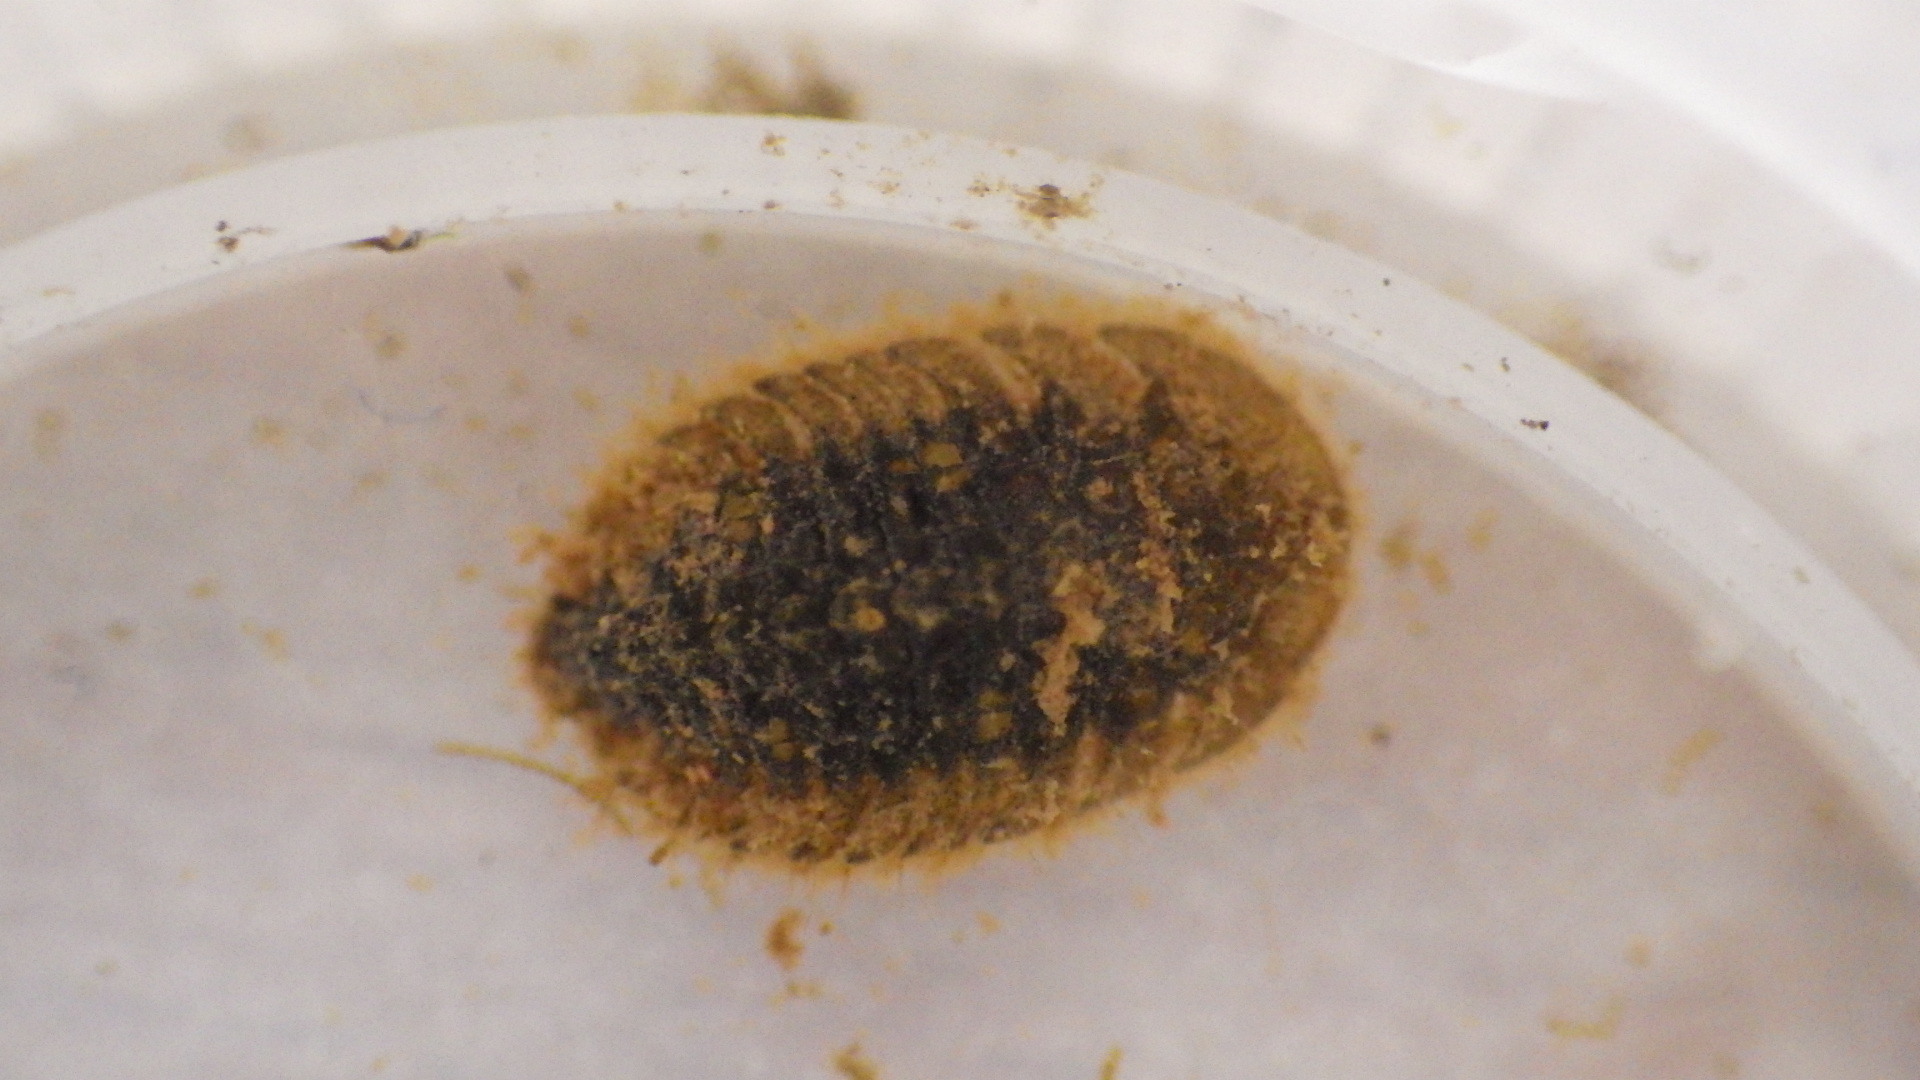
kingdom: Animalia
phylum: Arthropoda
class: Insecta
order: Coleoptera
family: Psephenidae
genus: Ectopria
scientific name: Ectopria nervosa
